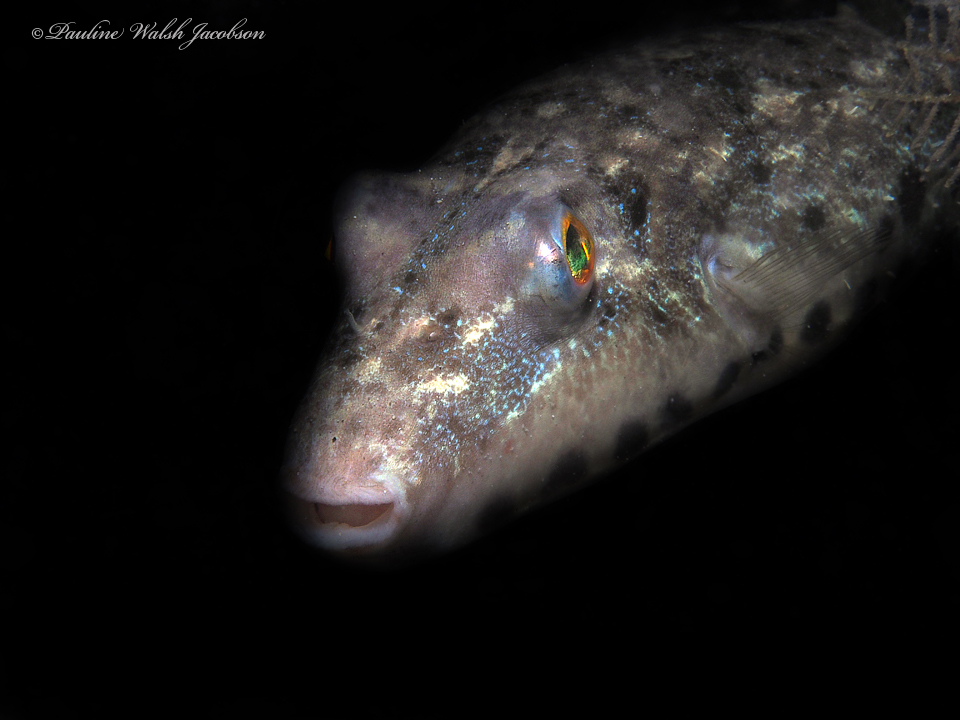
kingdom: Animalia
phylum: Chordata
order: Tetraodontiformes
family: Tetraodontidae
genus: Sphoeroides
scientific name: Sphoeroides spengleri
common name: Bandtail puffer
